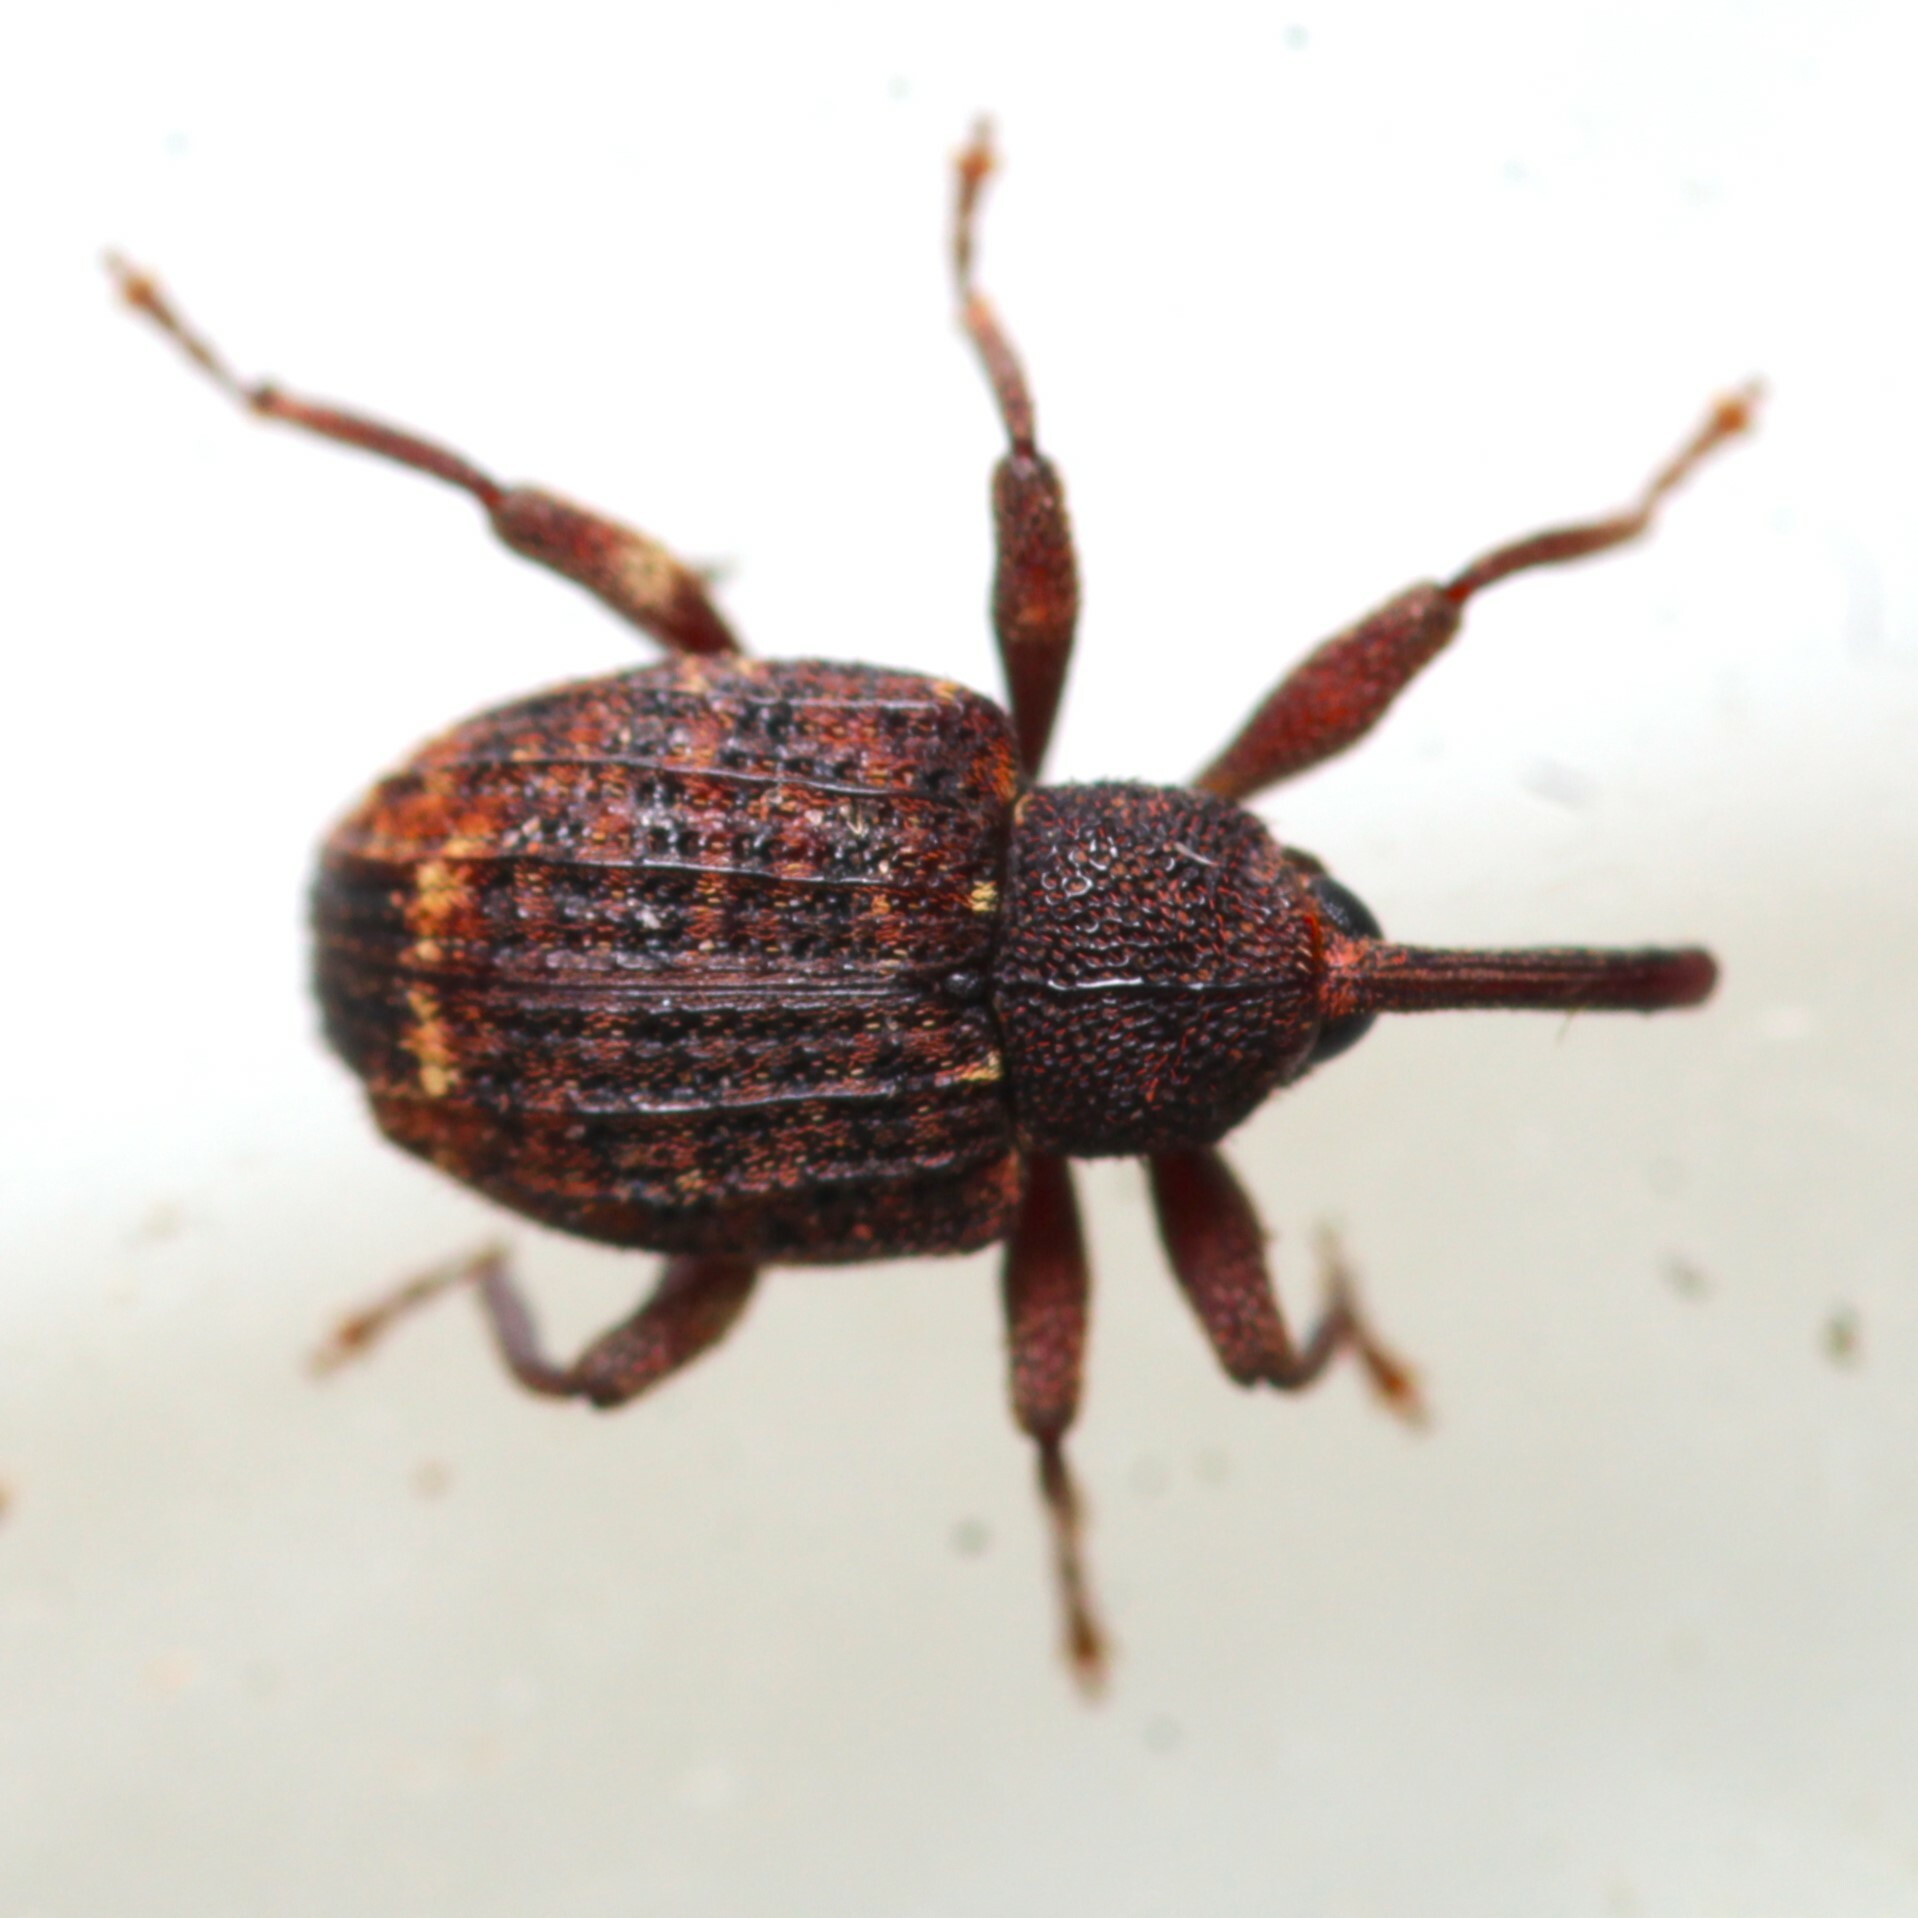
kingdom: Animalia
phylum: Arthropoda
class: Insecta
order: Coleoptera
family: Curculionidae
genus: Conotrachelus
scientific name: Conotrachelus posticatus
